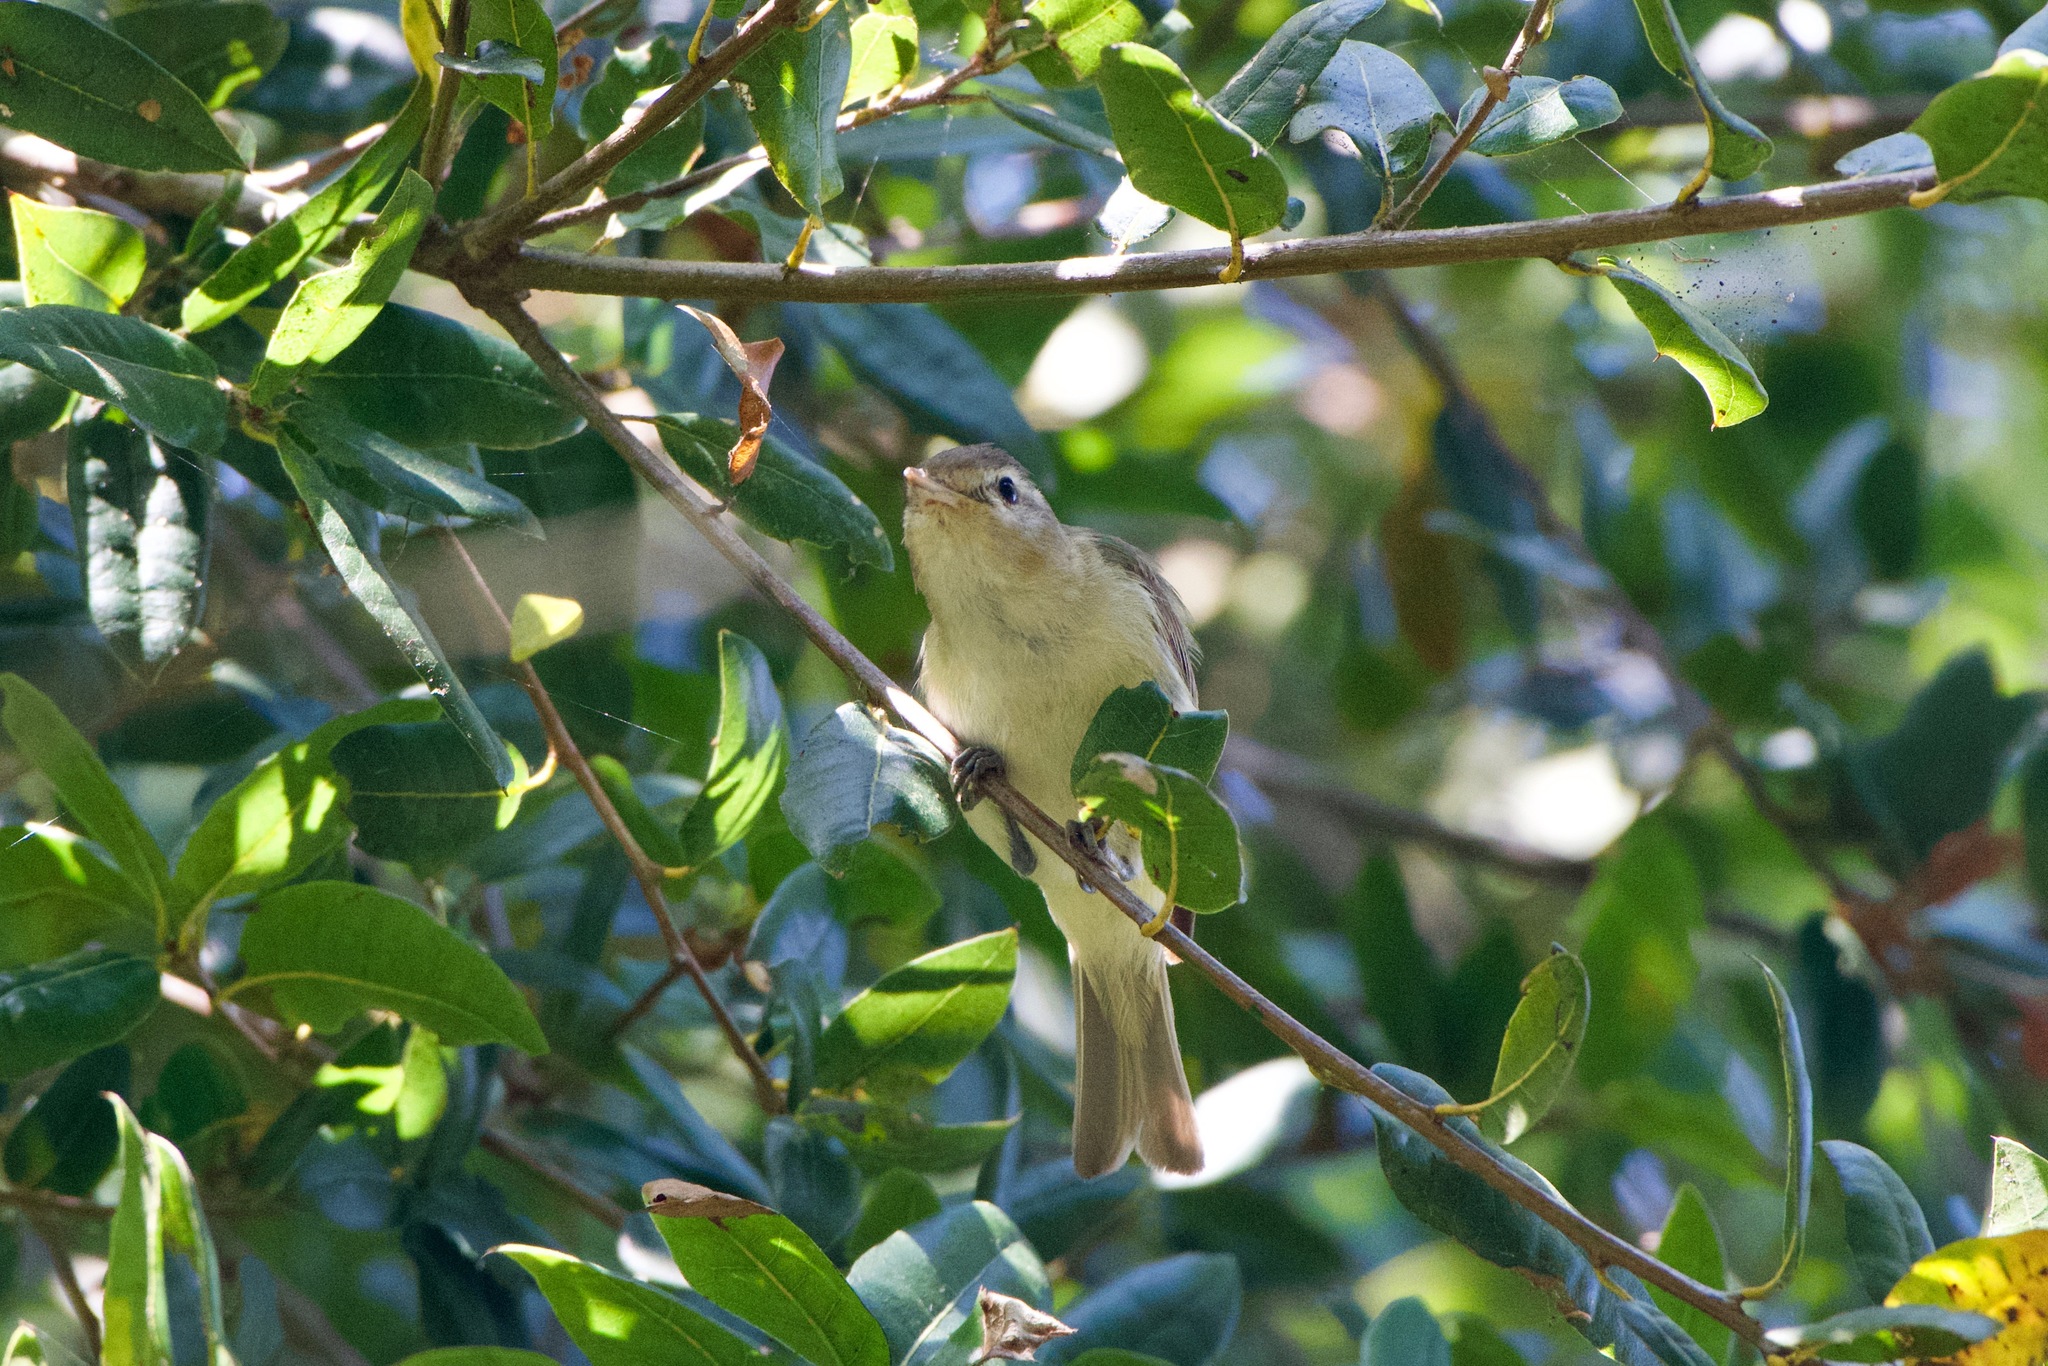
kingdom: Animalia
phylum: Chordata
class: Aves
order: Passeriformes
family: Vireonidae
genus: Vireo
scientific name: Vireo gilvus
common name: Warbling vireo
